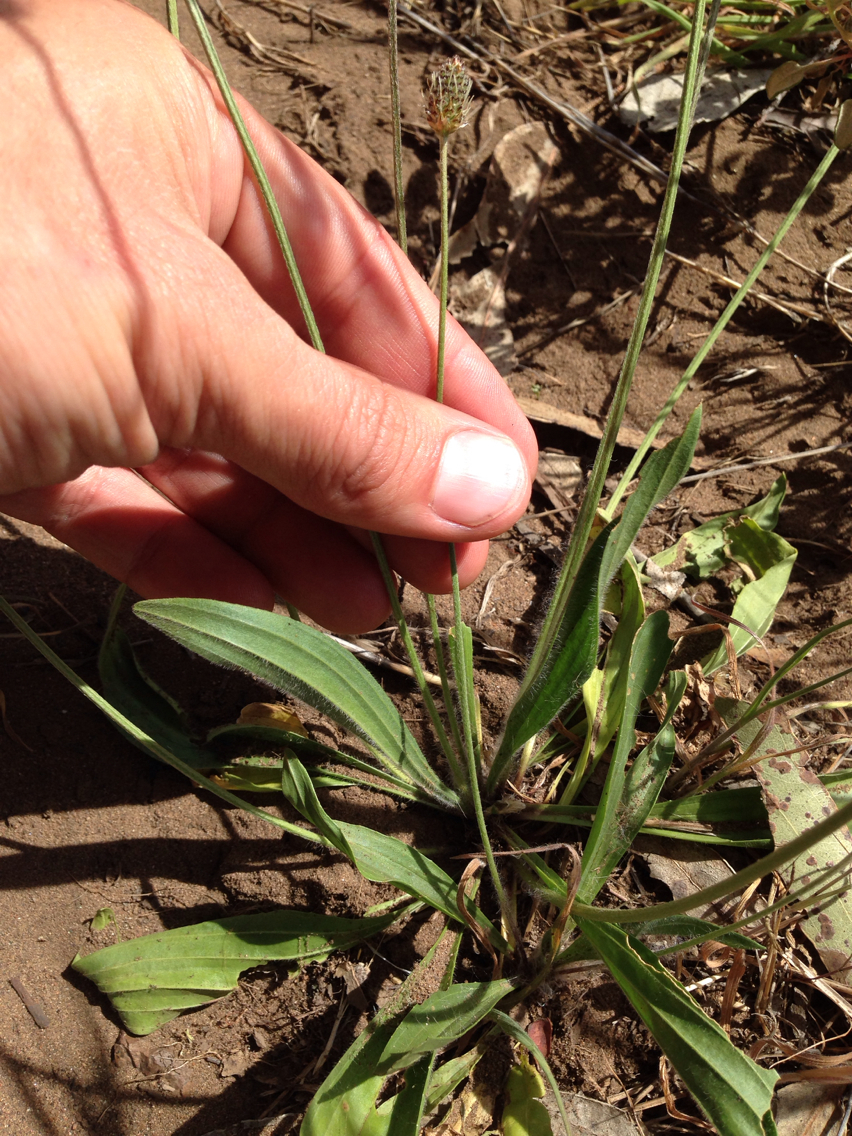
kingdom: Plantae
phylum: Tracheophyta
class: Magnoliopsida
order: Lamiales
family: Plantaginaceae
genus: Plantago
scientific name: Plantago lanceolata
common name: Ribwort plantain
